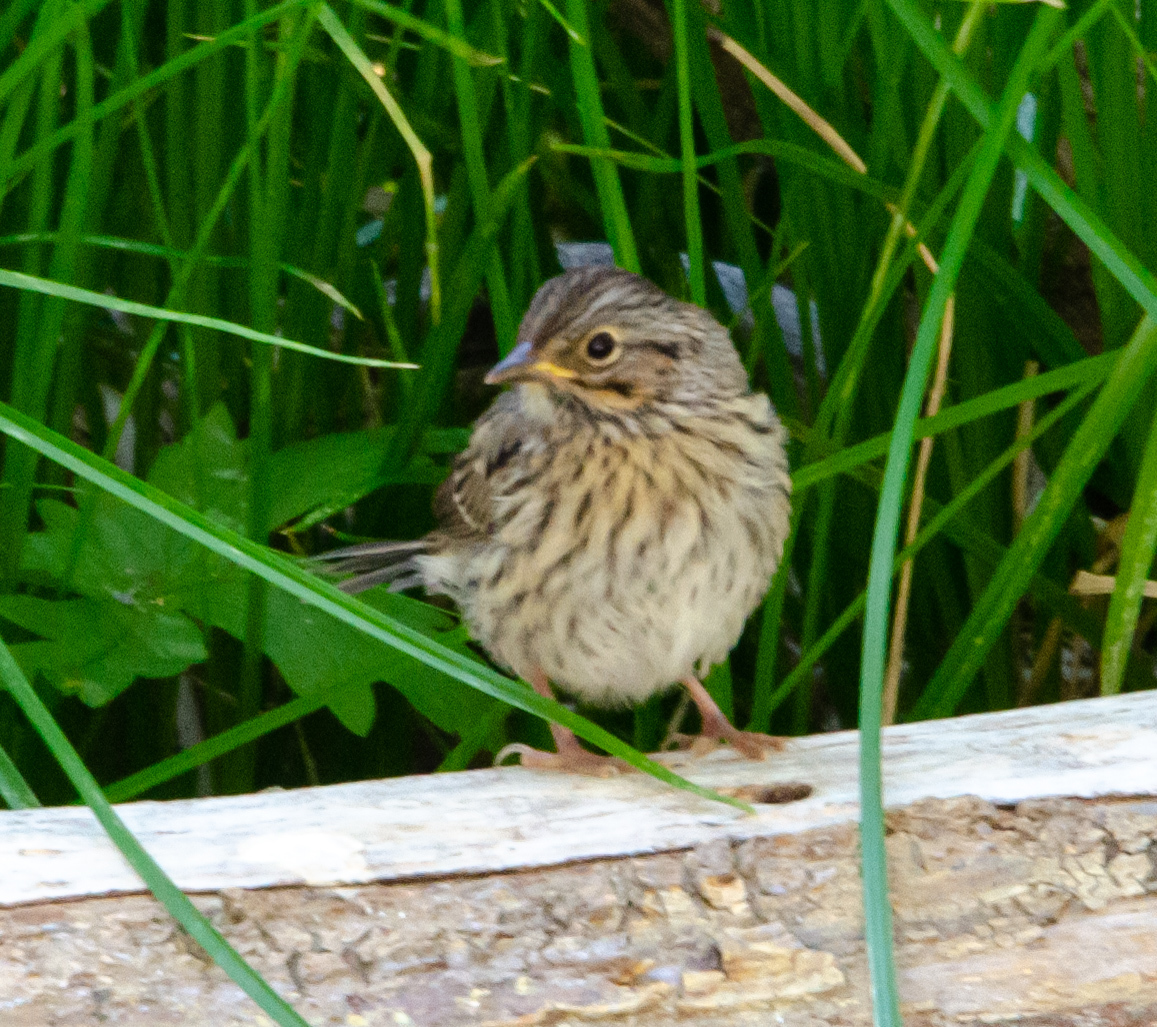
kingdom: Animalia
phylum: Chordata
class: Aves
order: Passeriformes
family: Passerellidae
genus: Melospiza
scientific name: Melospiza lincolnii
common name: Lincoln's sparrow
